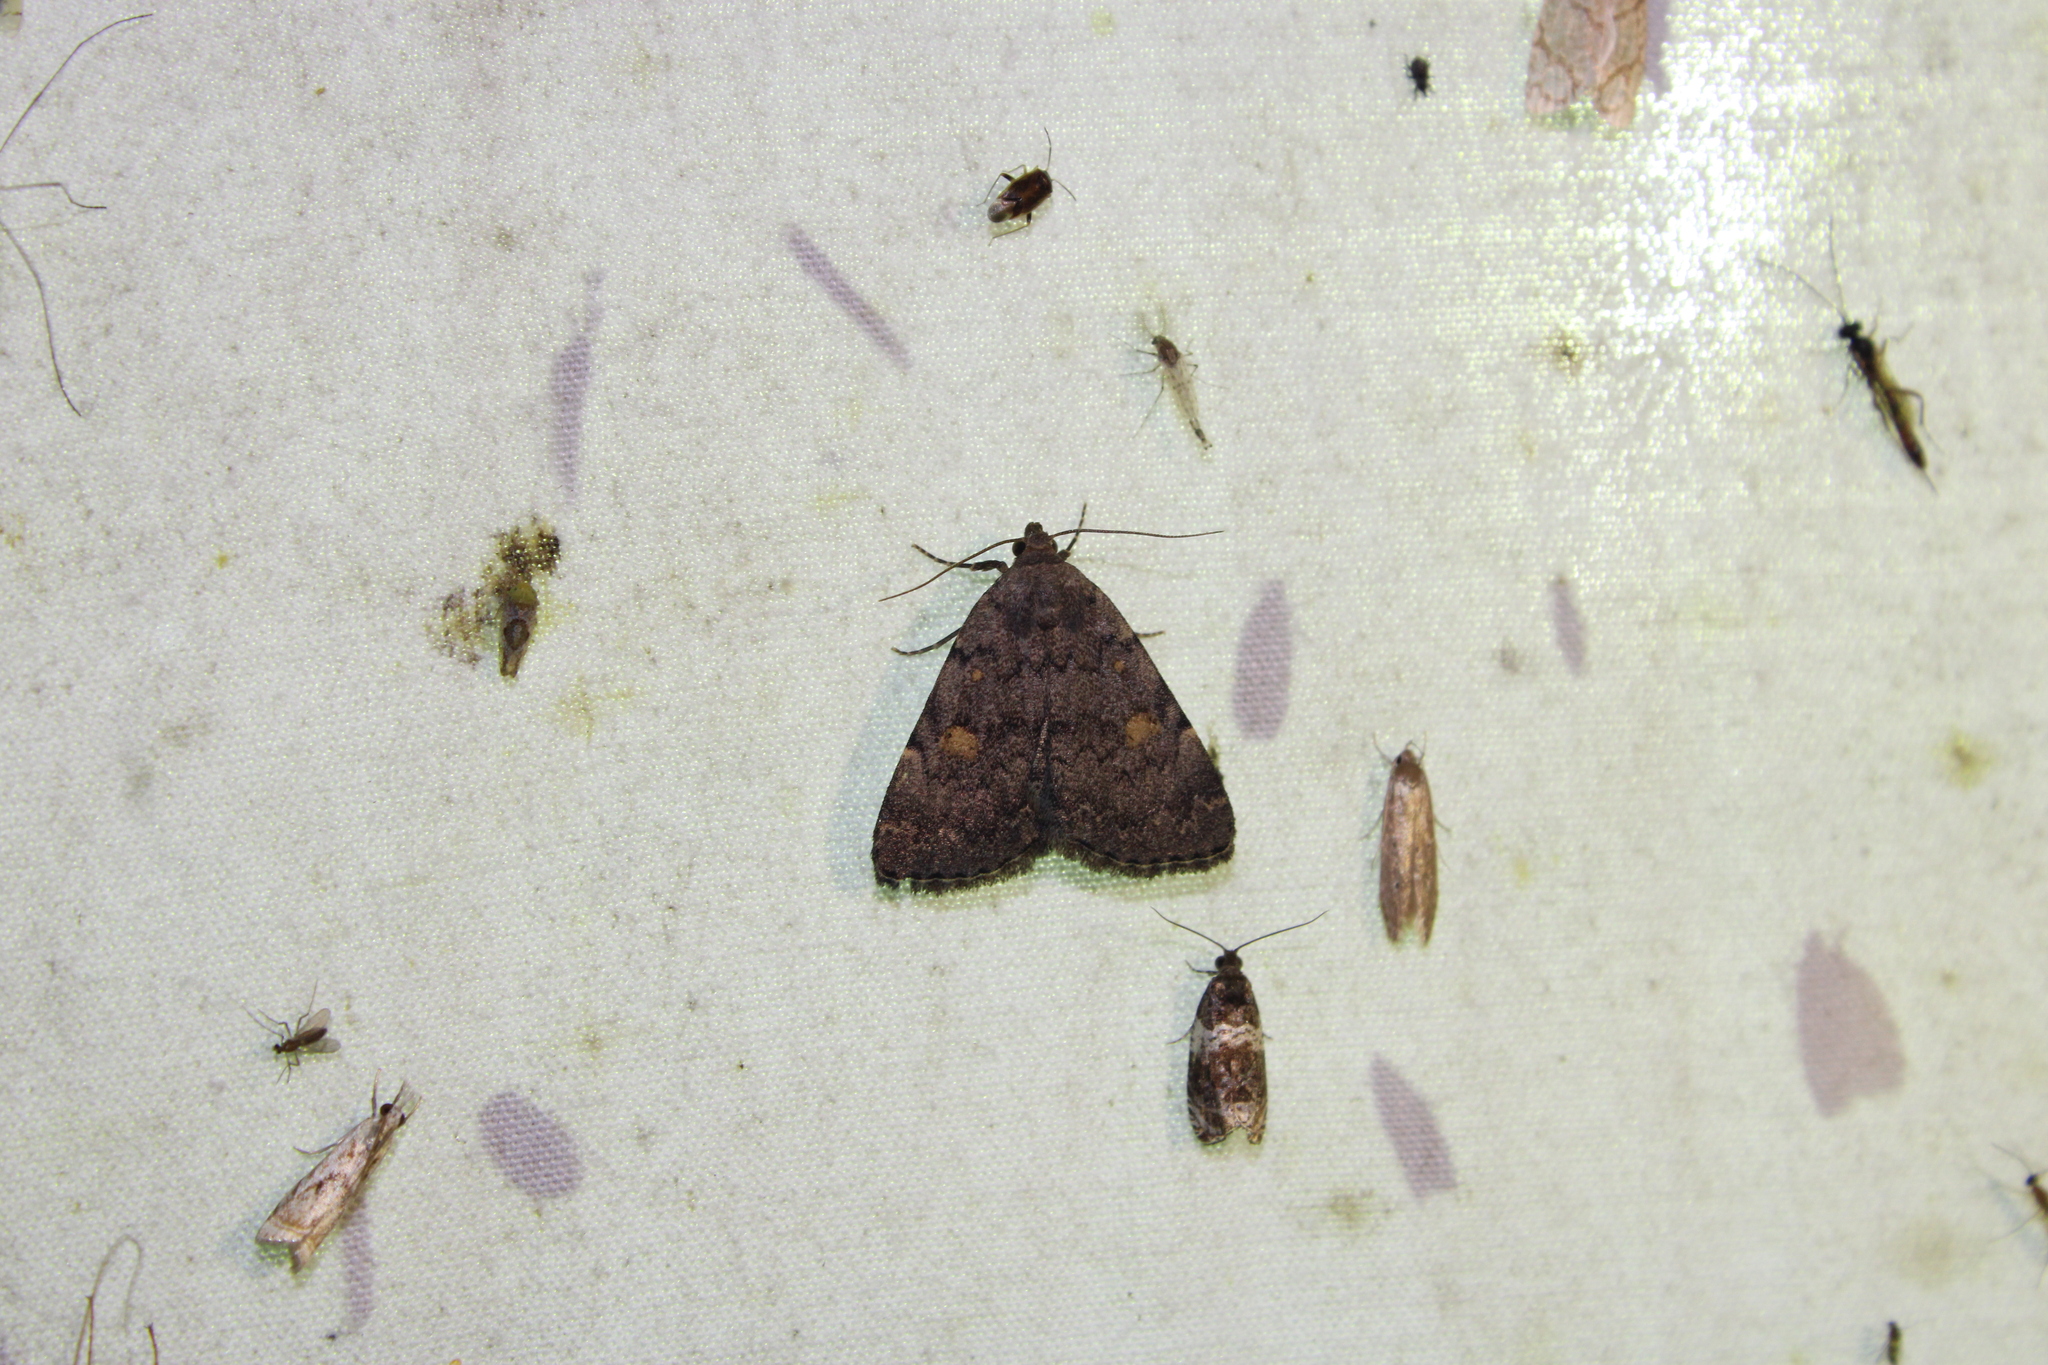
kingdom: Animalia
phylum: Arthropoda
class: Insecta
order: Lepidoptera
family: Erebidae
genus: Idia
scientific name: Idia aemula
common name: Common idia moth
